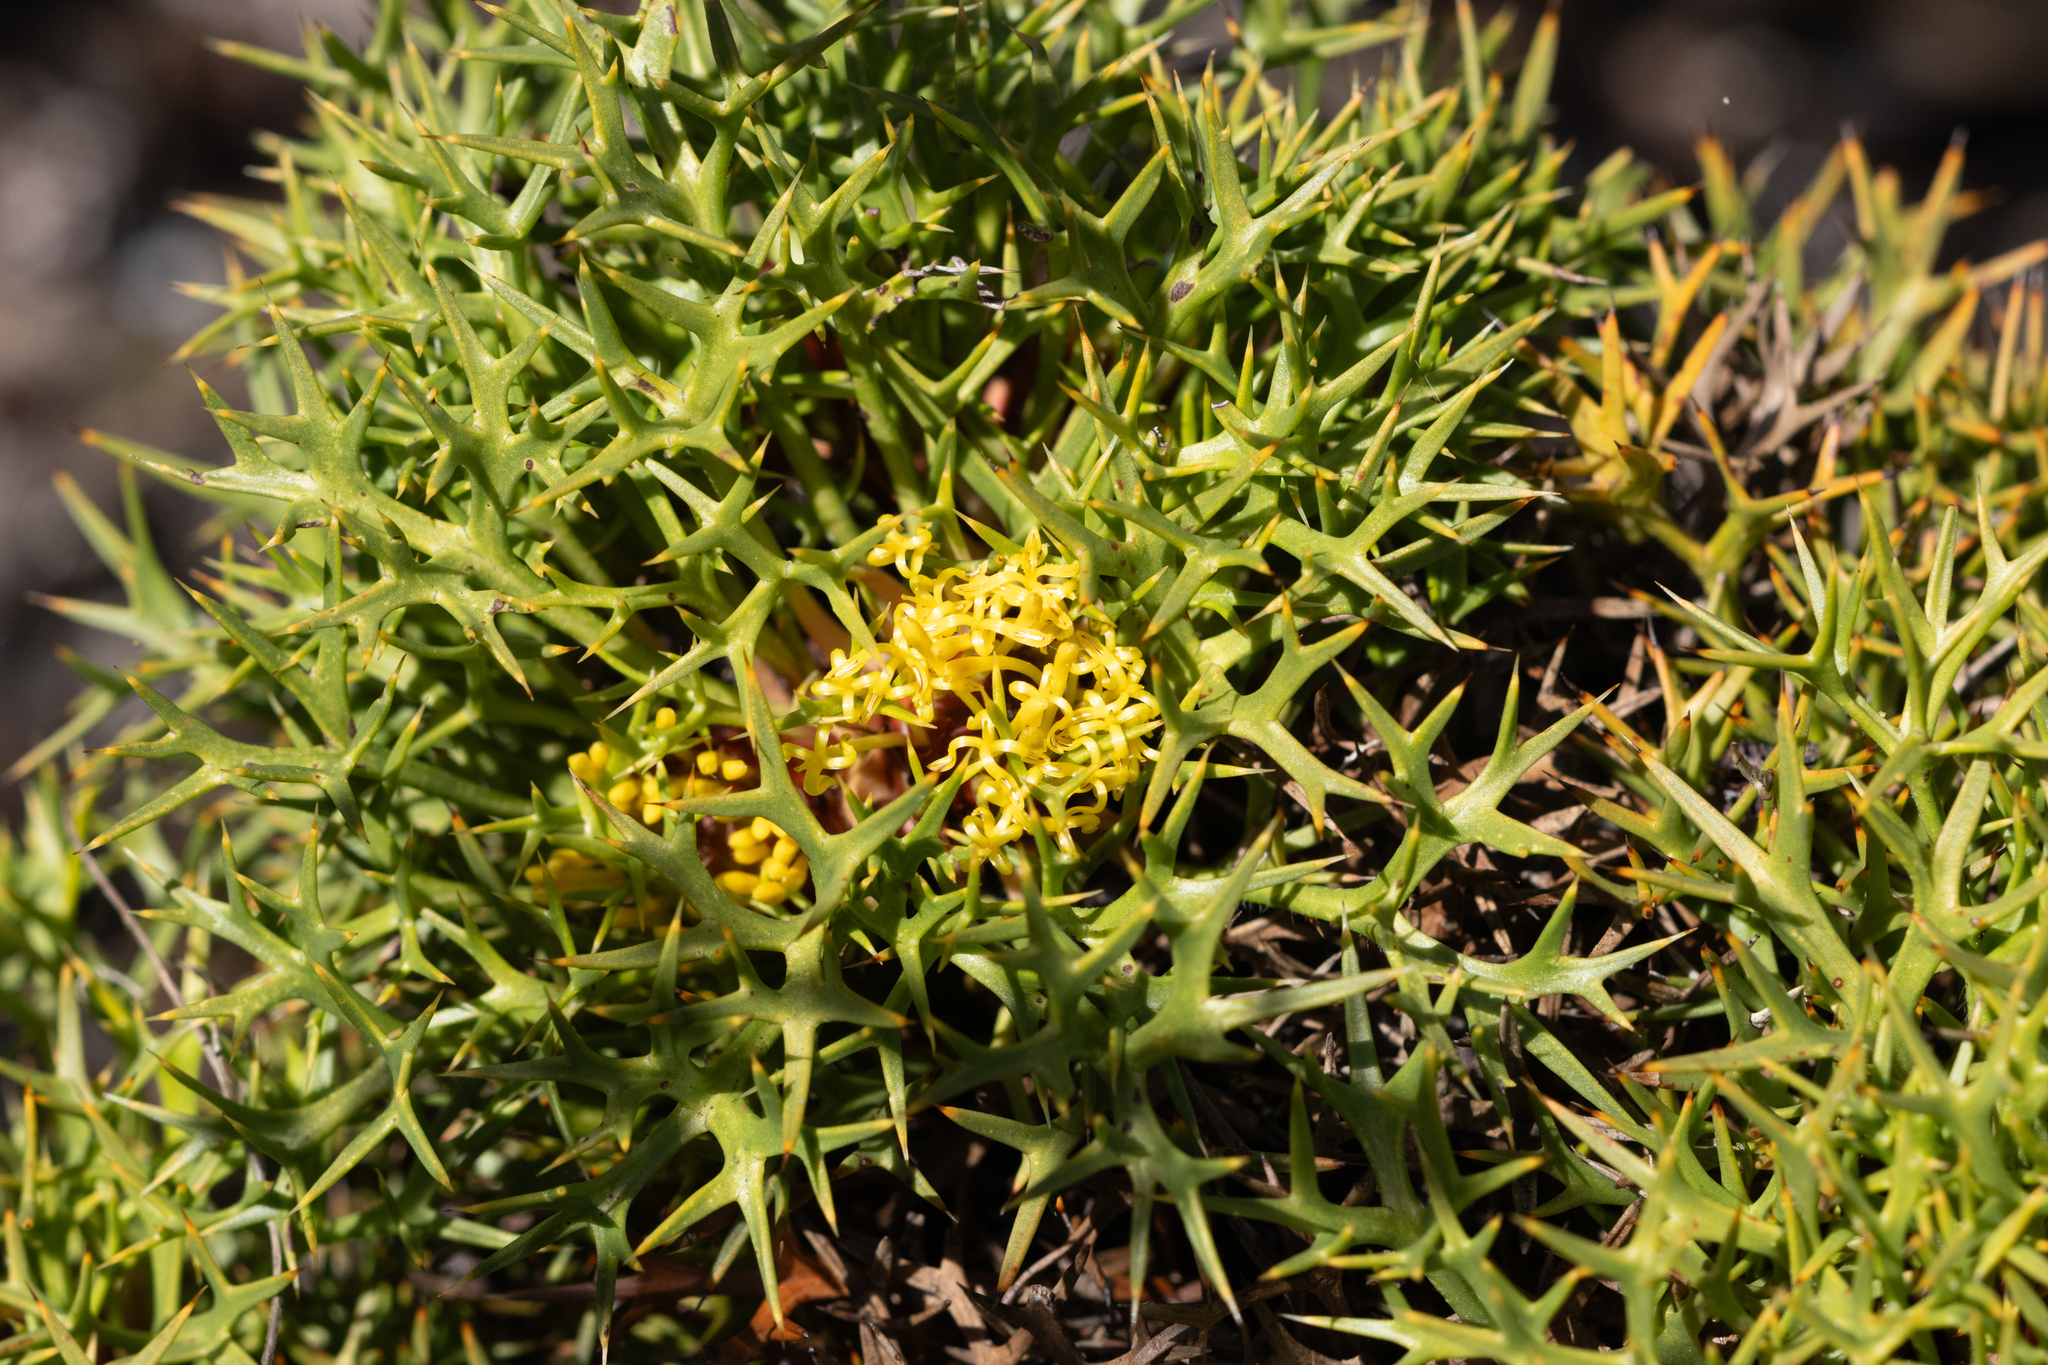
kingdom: Plantae
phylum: Tracheophyta
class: Magnoliopsida
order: Proteales
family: Proteaceae
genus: Isopogon
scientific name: Isopogon ceratophyllus
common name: Horny cone-bush
